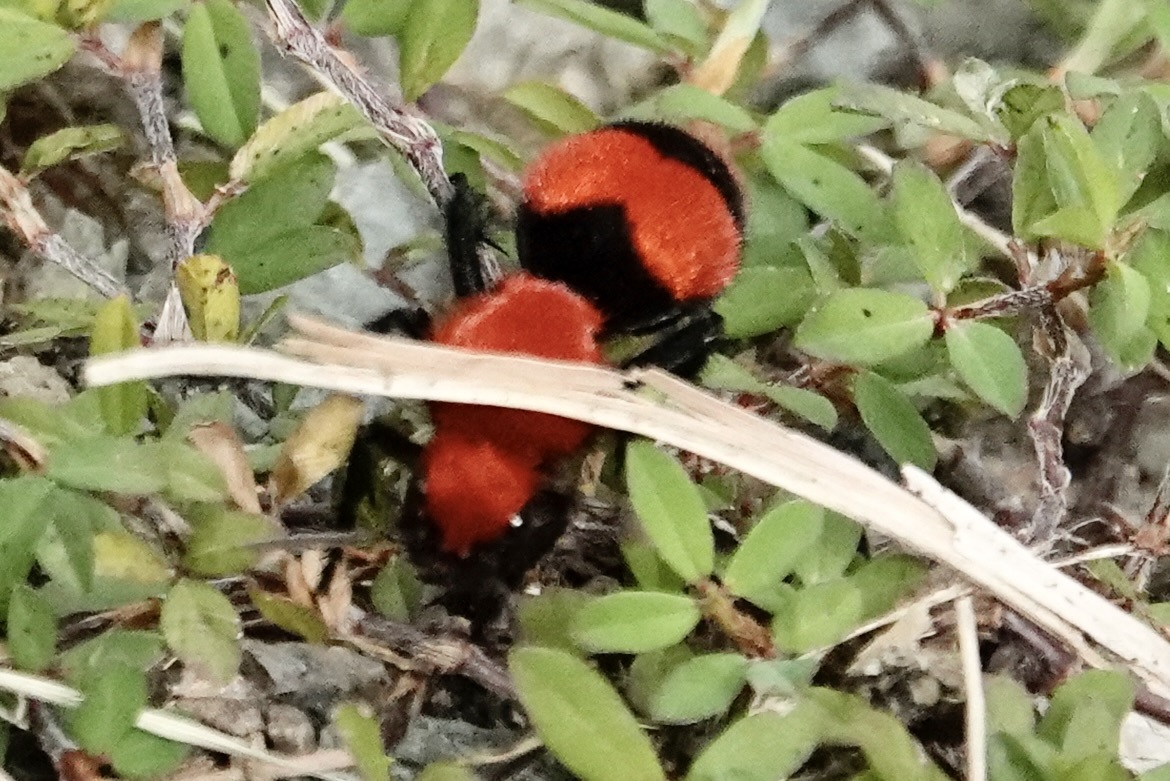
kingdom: Animalia
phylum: Arthropoda
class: Insecta
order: Hymenoptera
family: Mutillidae
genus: Dasymutilla
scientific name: Dasymutilla occidentalis
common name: Common eastern velvet ant
